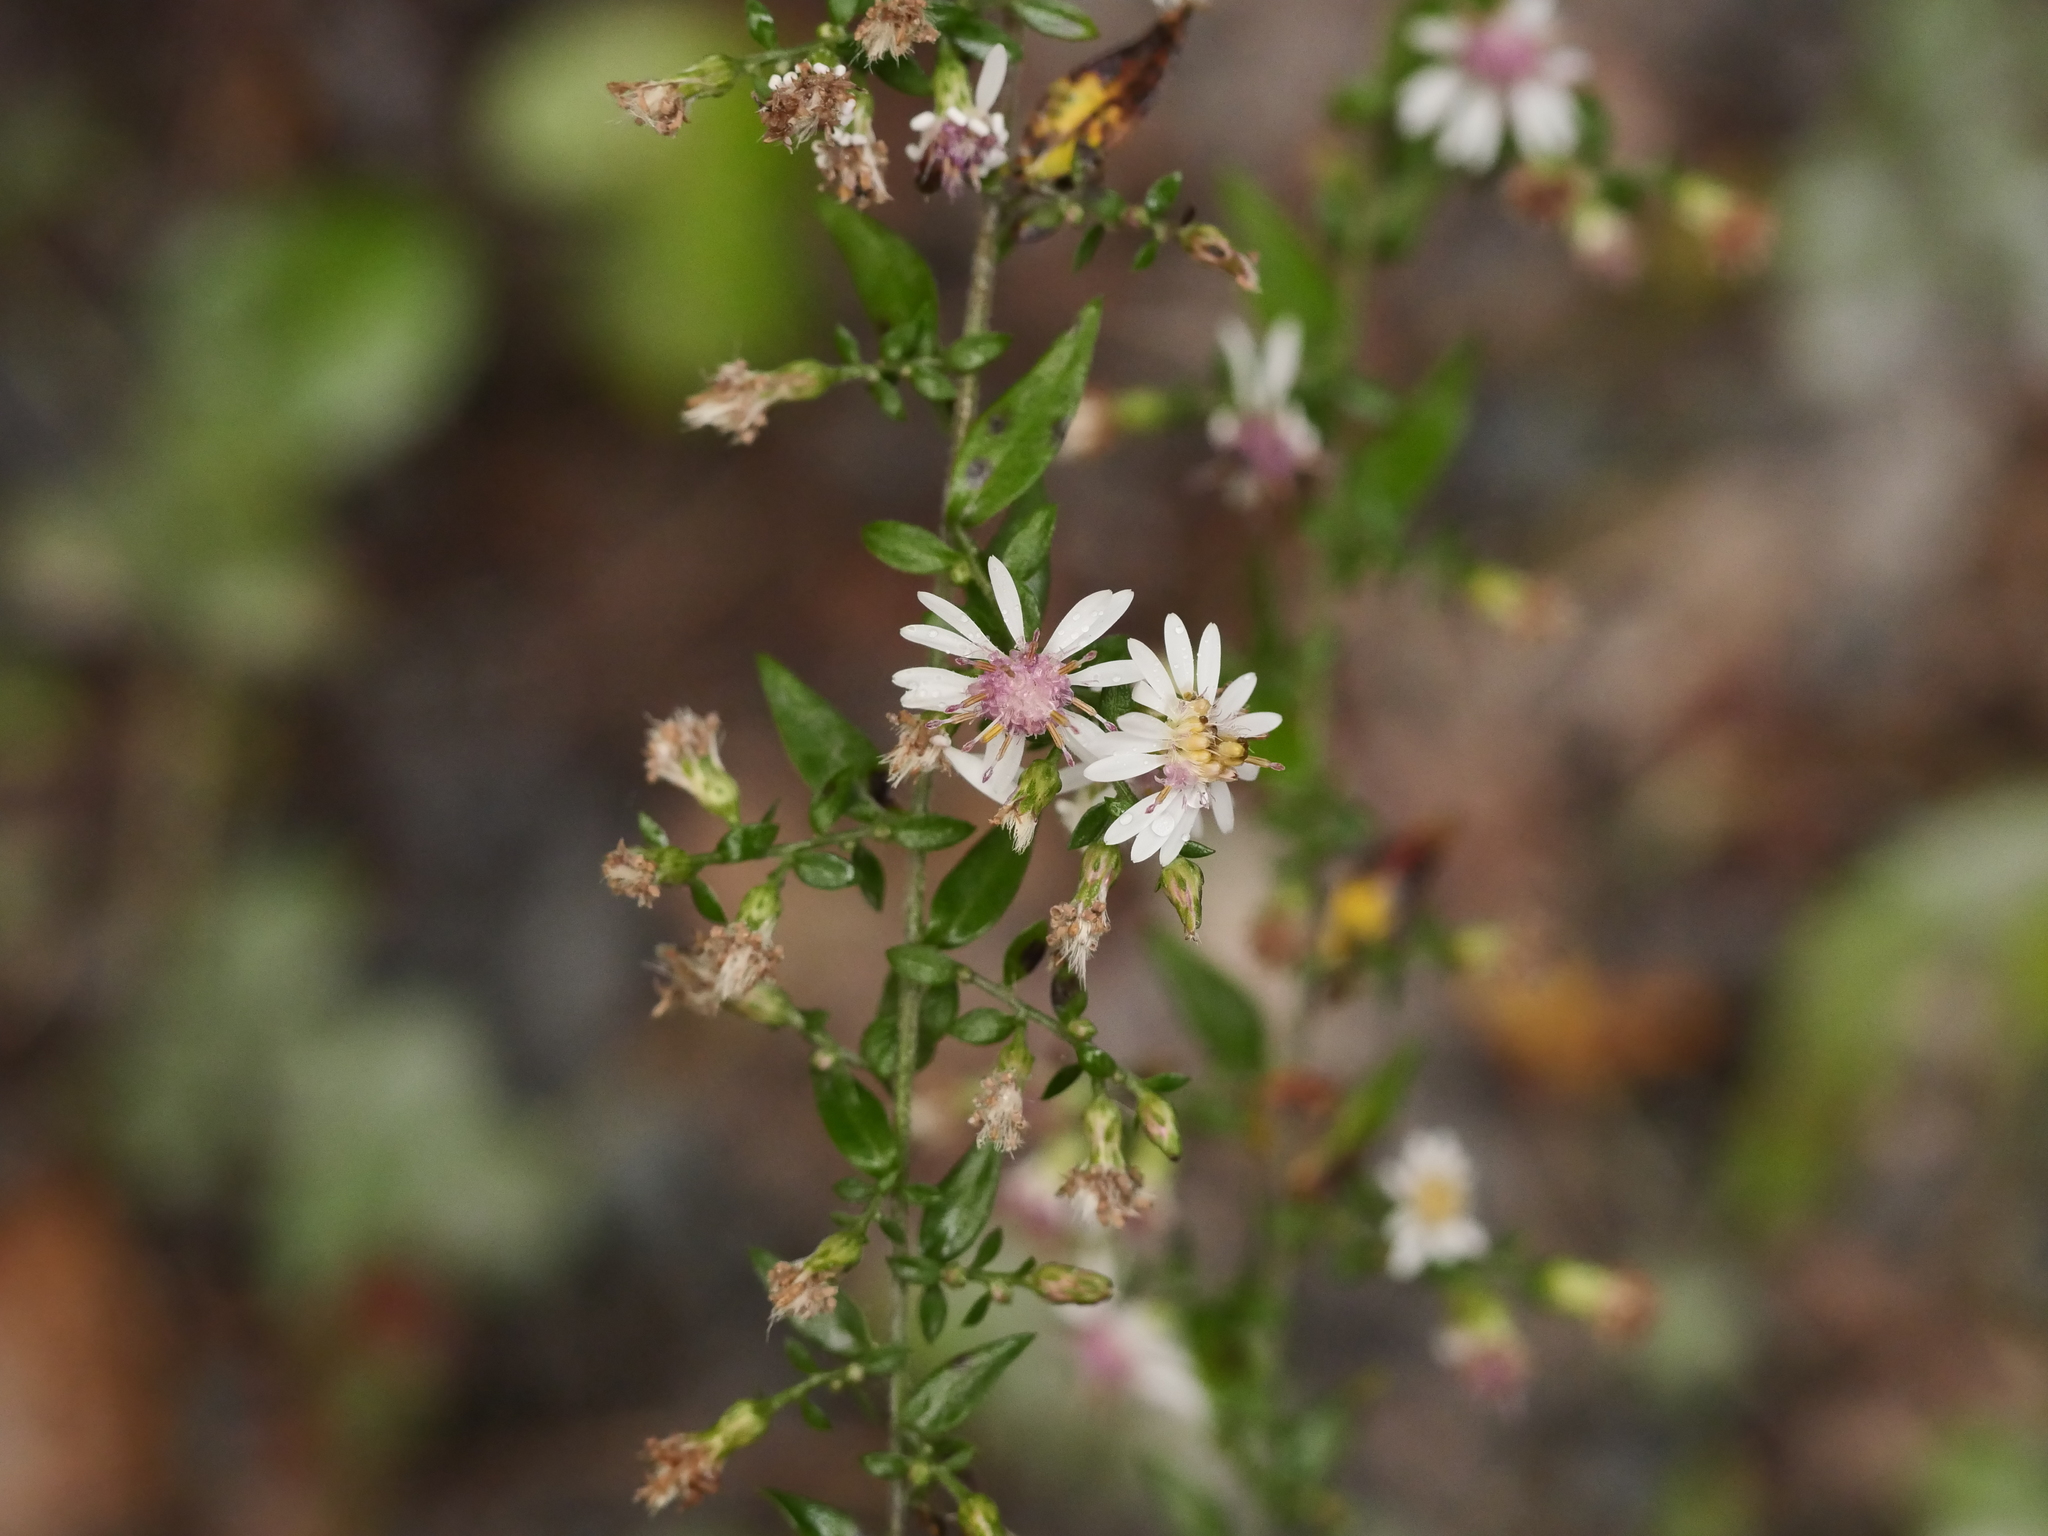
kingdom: Plantae
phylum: Tracheophyta
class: Magnoliopsida
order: Asterales
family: Asteraceae
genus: Symphyotrichum
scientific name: Symphyotrichum lateriflorum
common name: Calico aster
